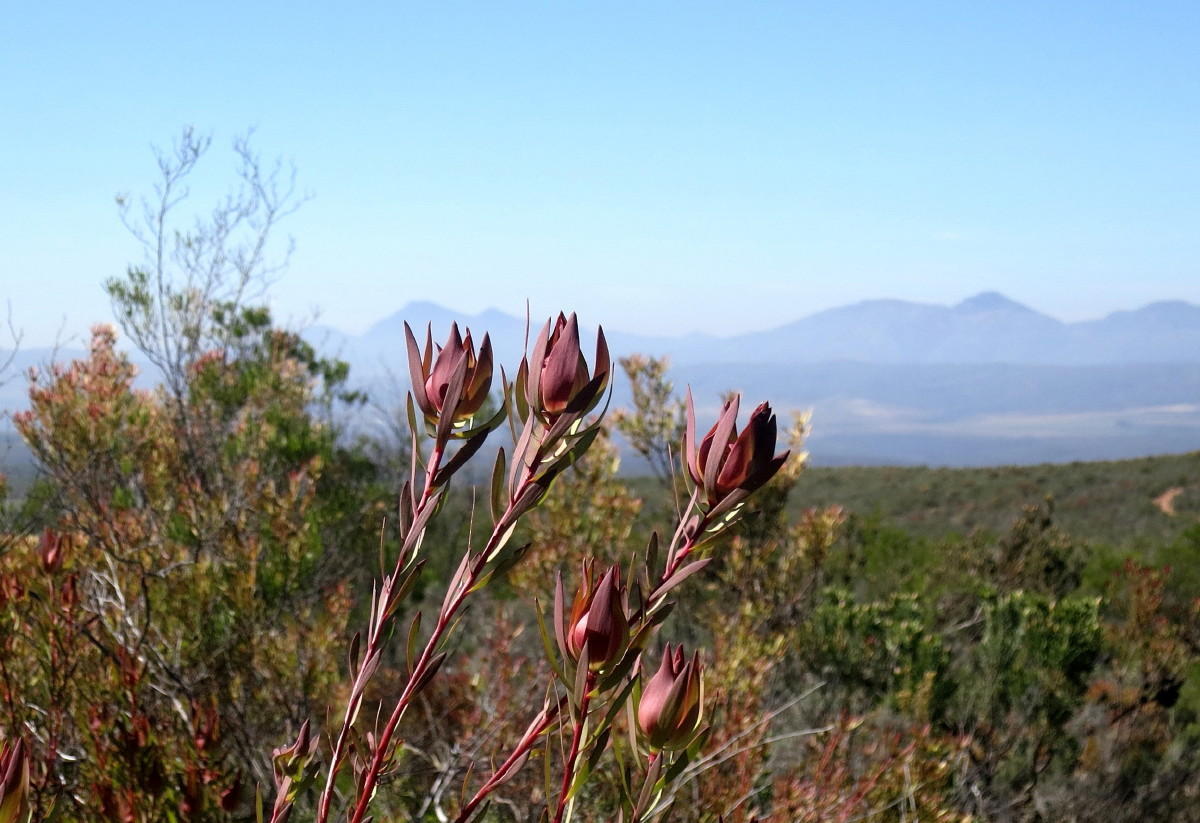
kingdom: Plantae
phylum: Tracheophyta
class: Magnoliopsida
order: Proteales
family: Proteaceae
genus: Leucadendron
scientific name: Leucadendron salignum
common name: Common sunshine conebush
